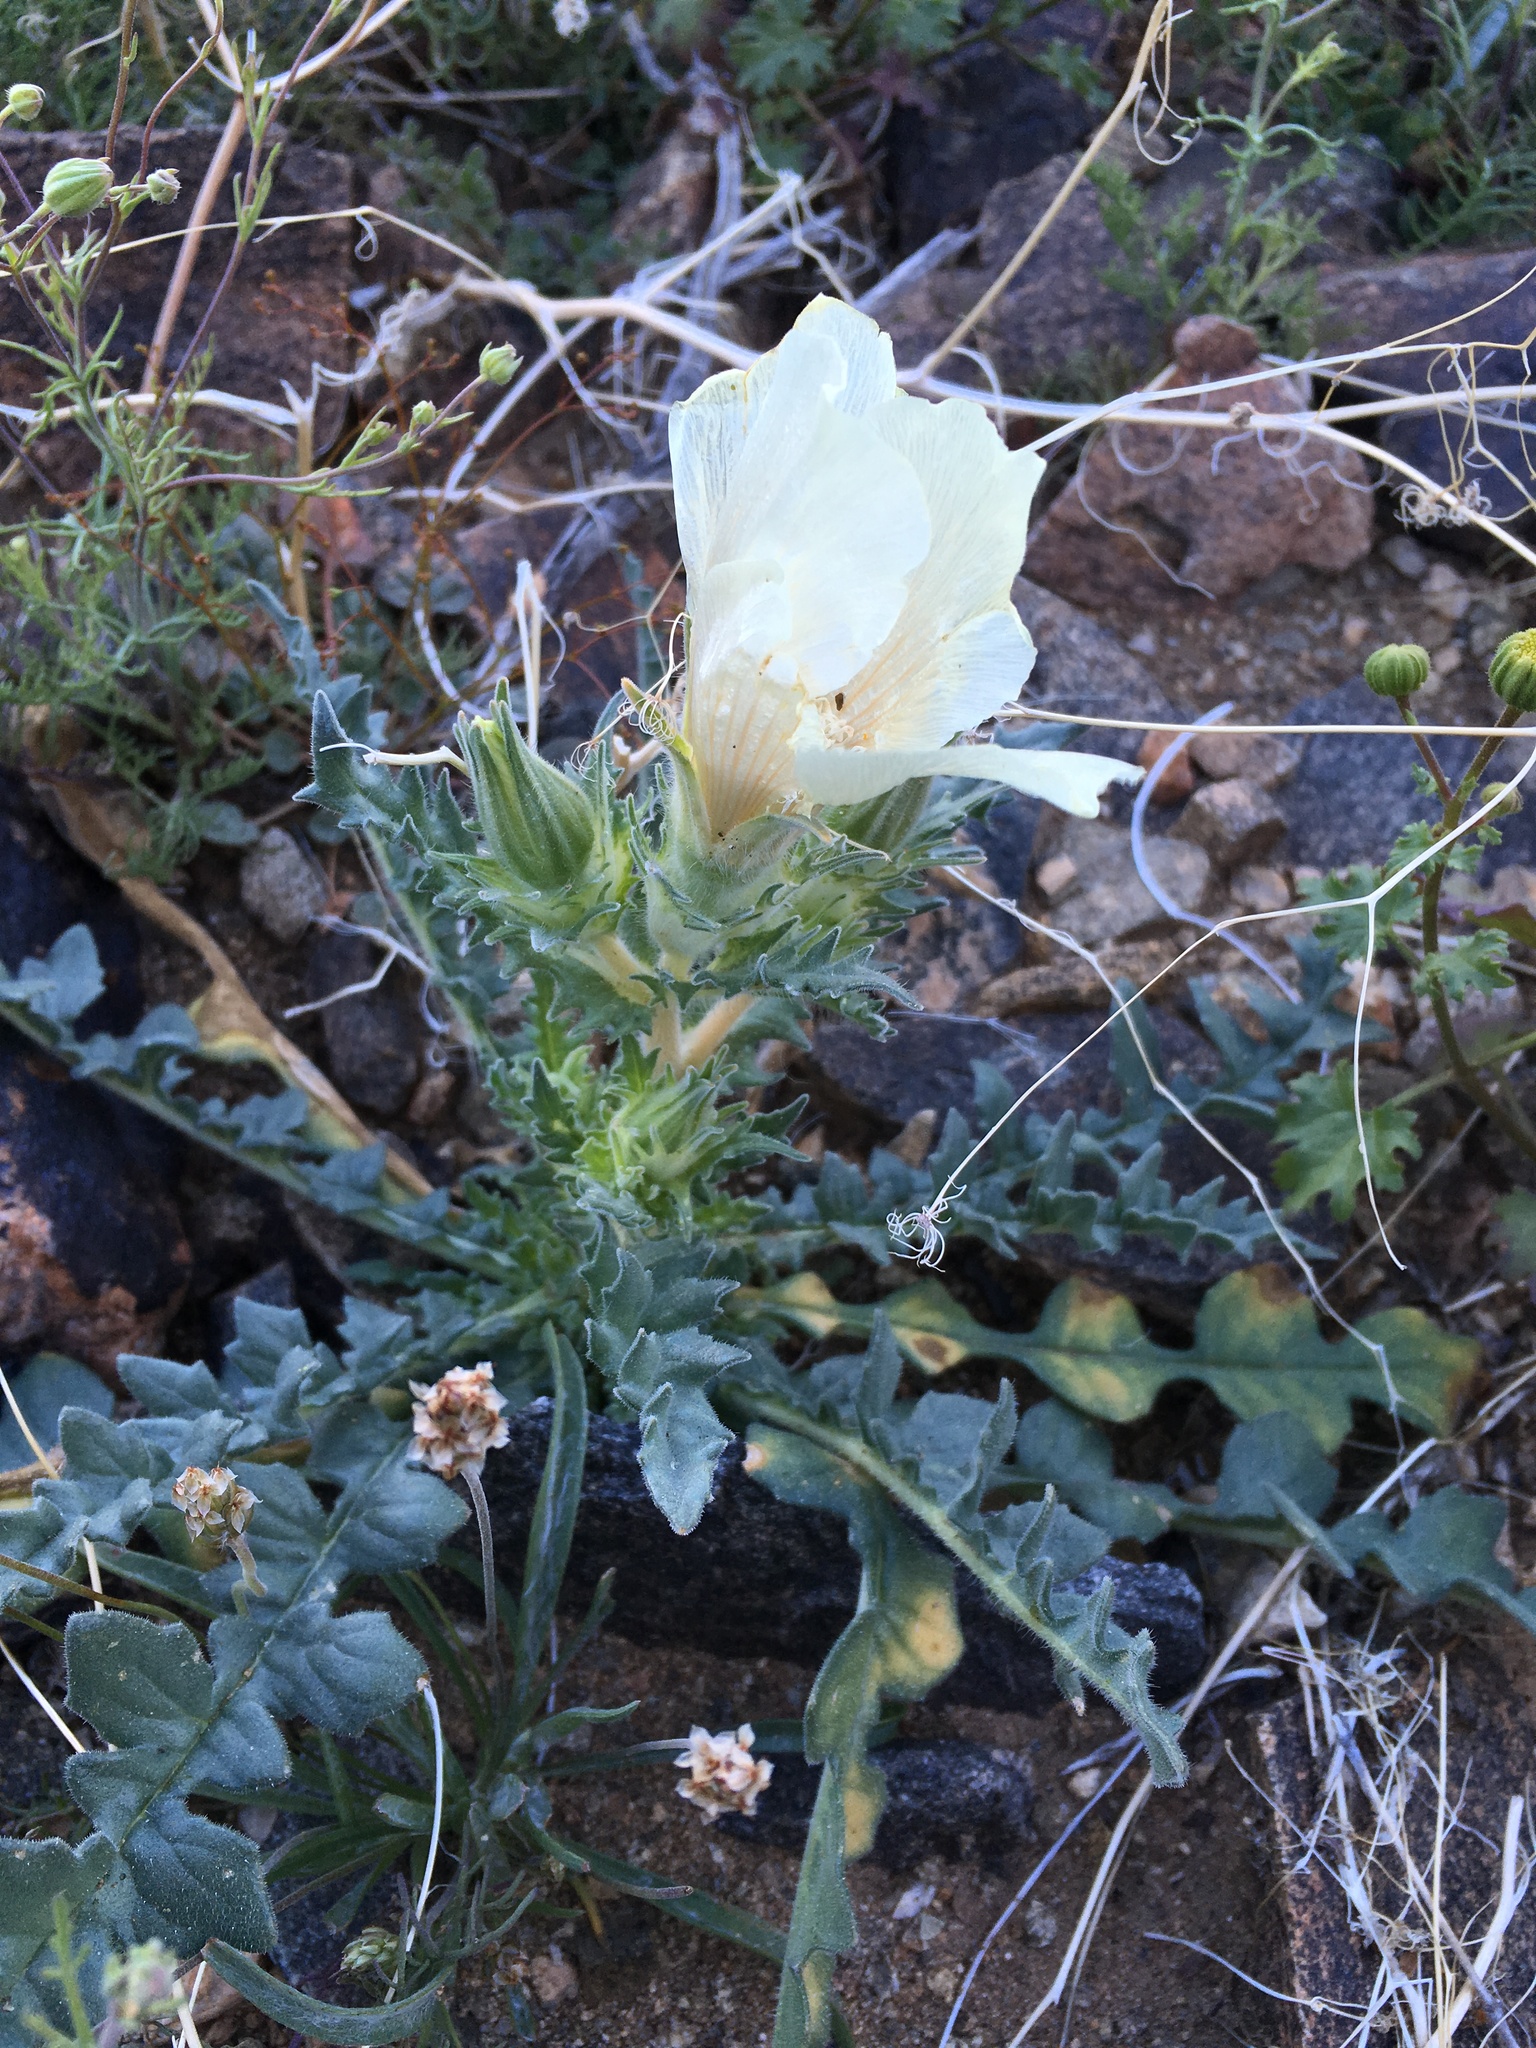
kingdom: Plantae
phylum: Tracheophyta
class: Magnoliopsida
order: Cornales
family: Loasaceae
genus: Mentzelia
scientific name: Mentzelia involucrata
